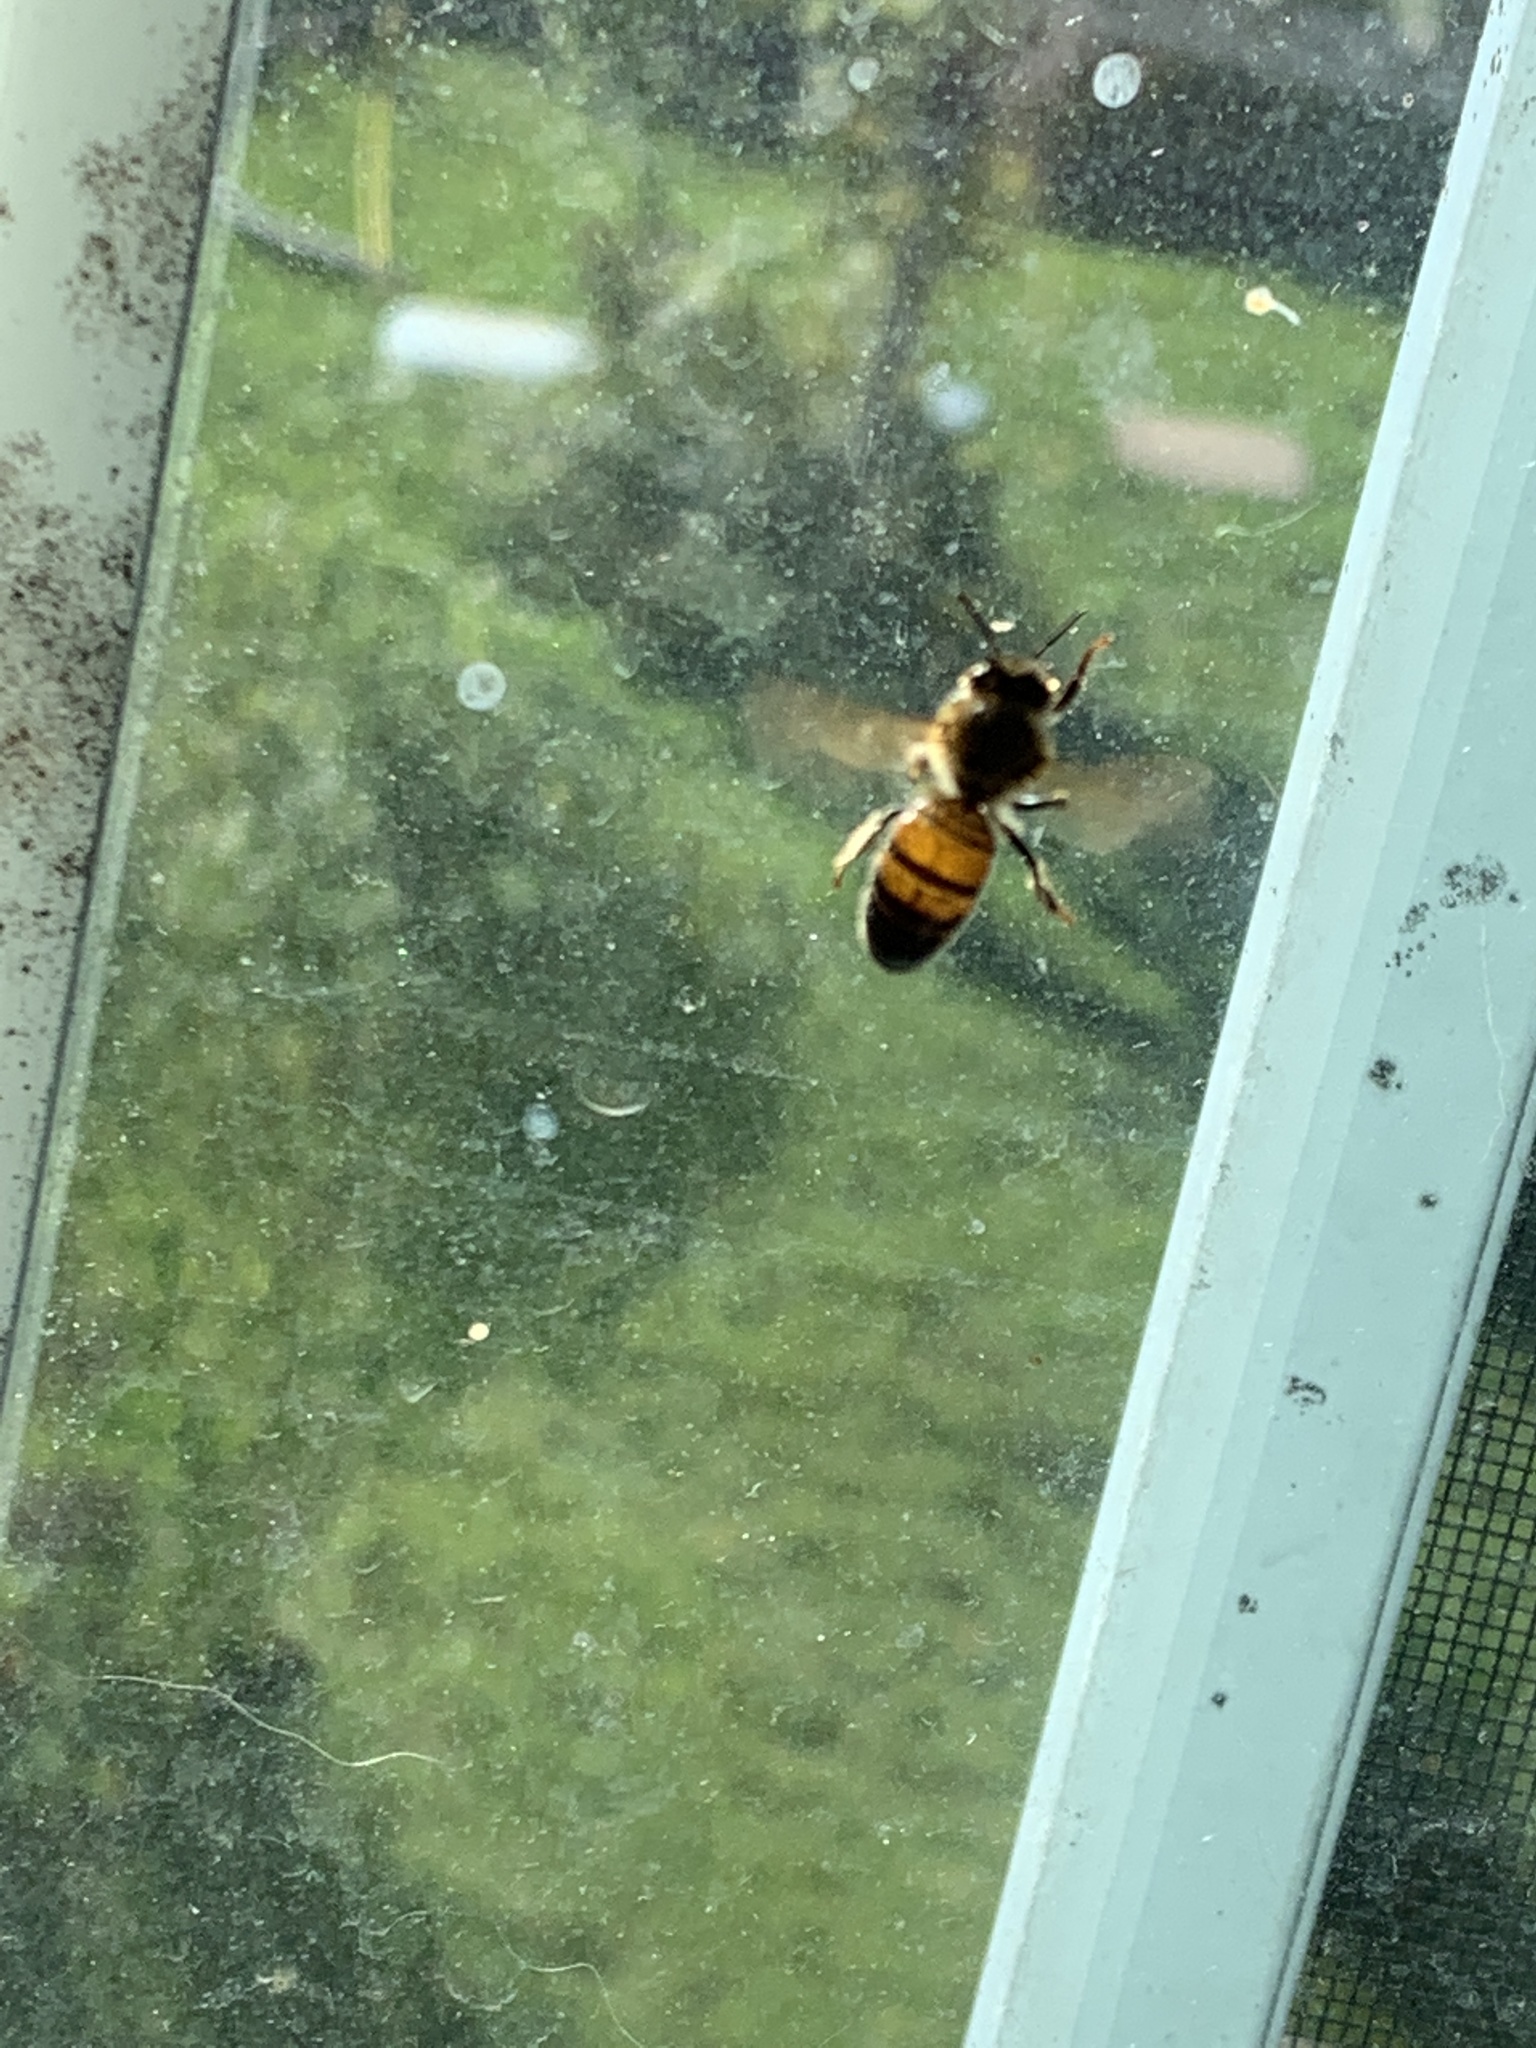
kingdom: Animalia
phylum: Arthropoda
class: Insecta
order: Hymenoptera
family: Apidae
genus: Apis
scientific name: Apis mellifera
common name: Honey bee
